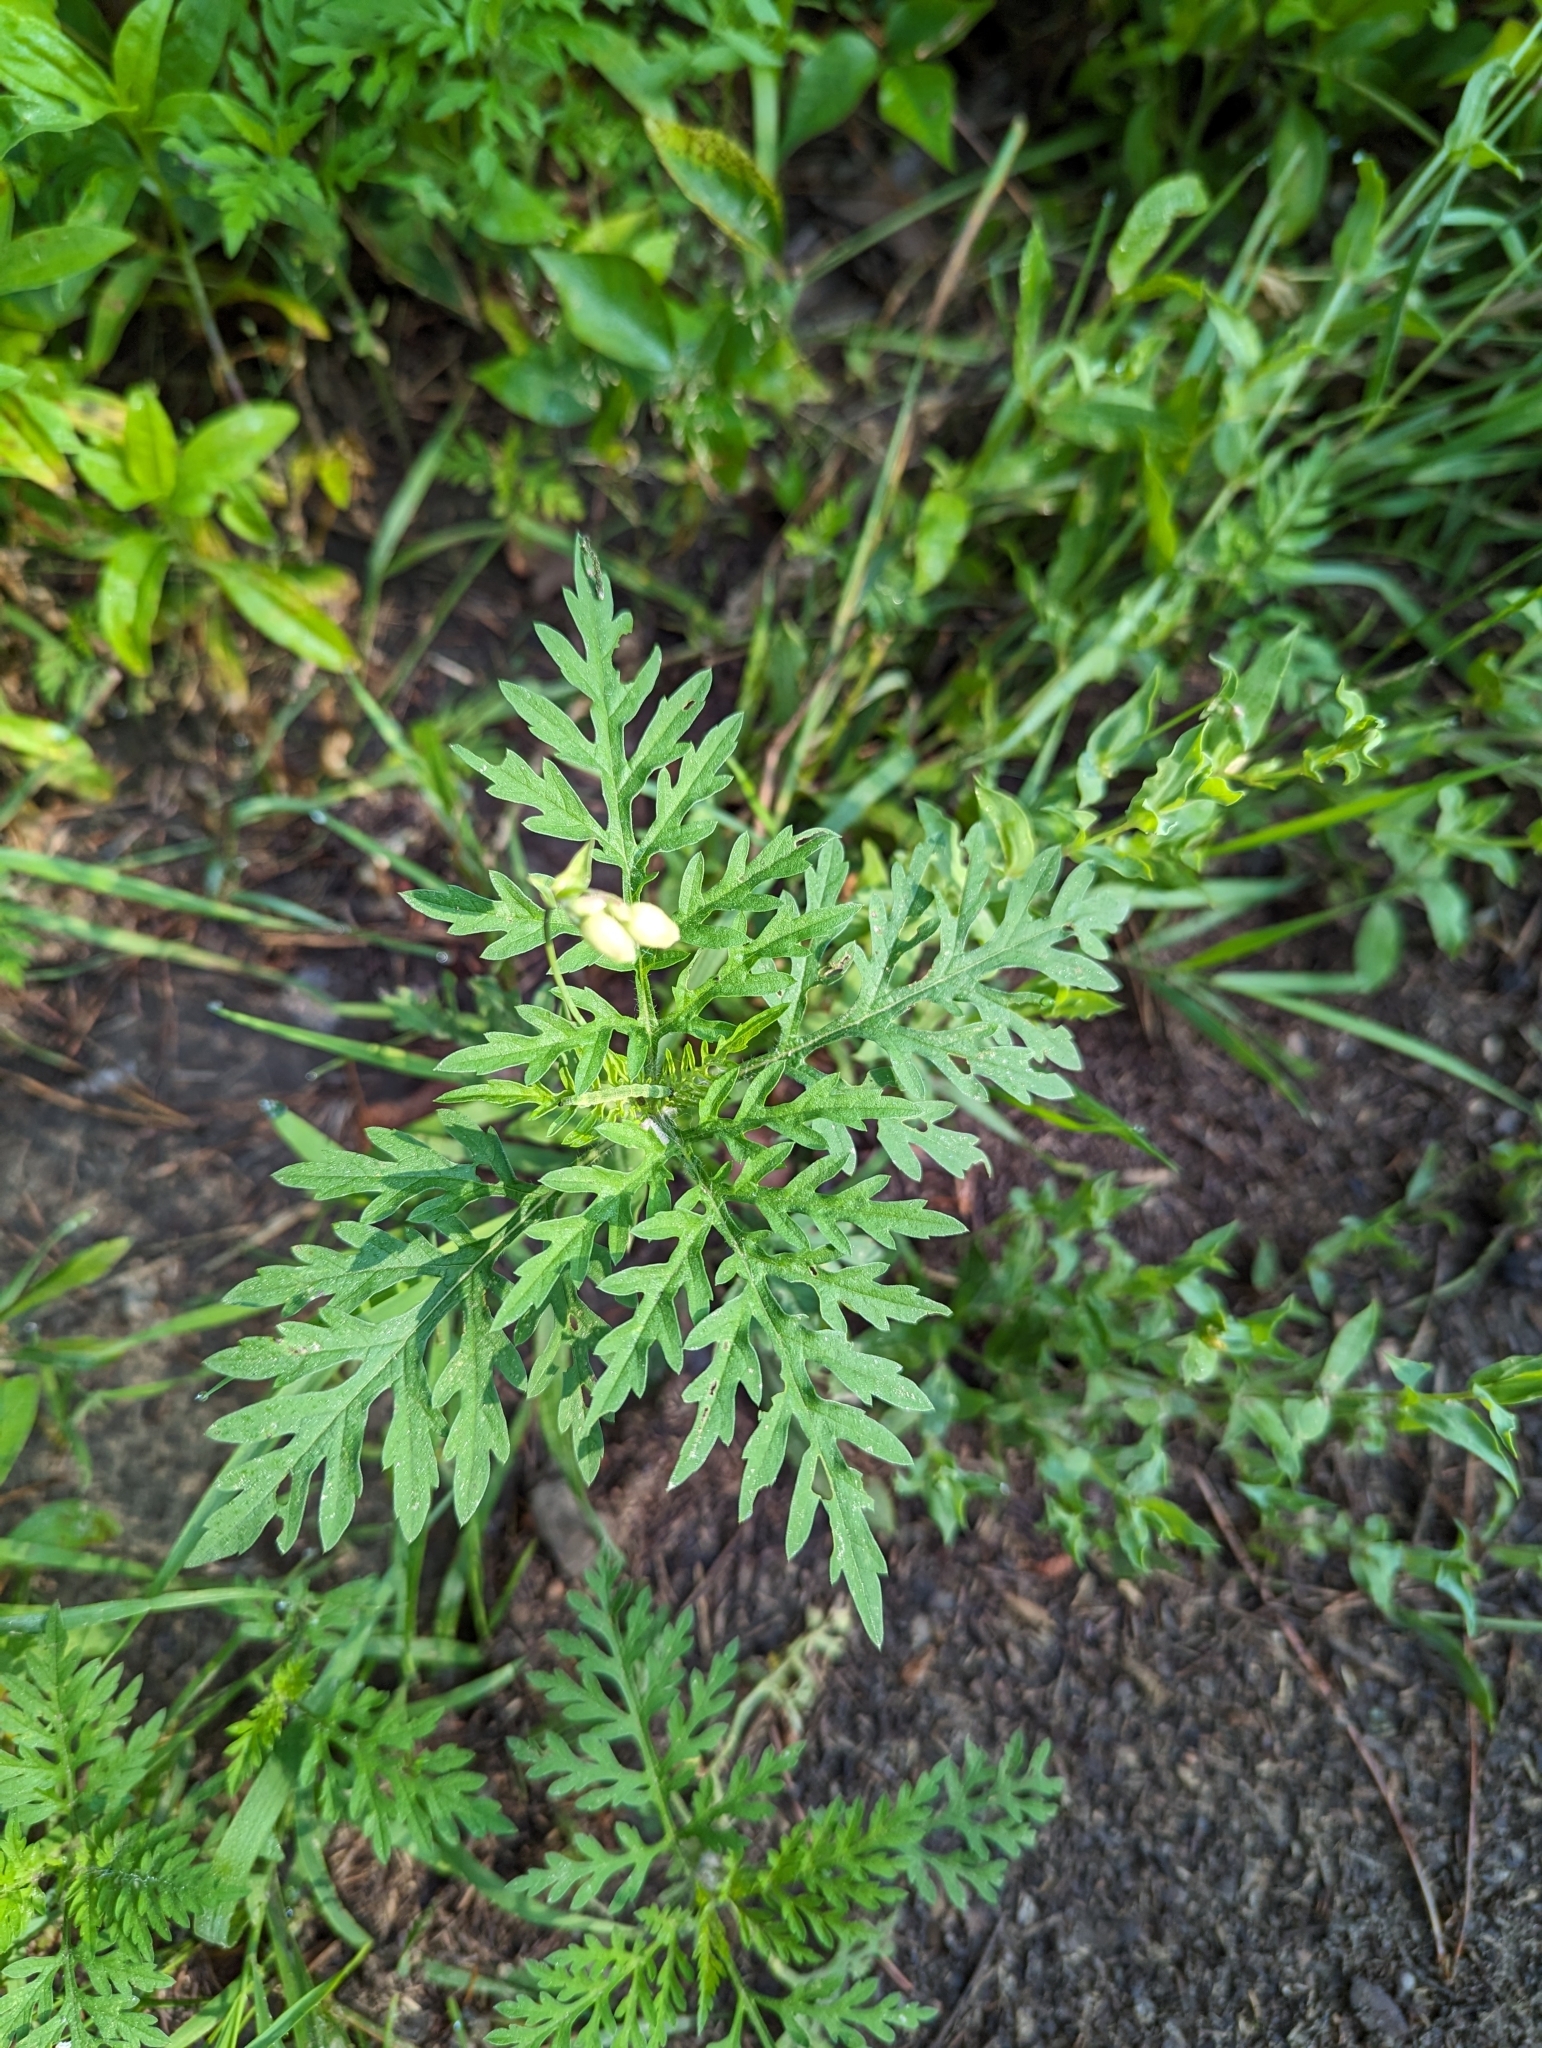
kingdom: Plantae
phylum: Tracheophyta
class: Magnoliopsida
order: Asterales
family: Asteraceae
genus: Ambrosia
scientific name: Ambrosia artemisiifolia
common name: Annual ragweed
